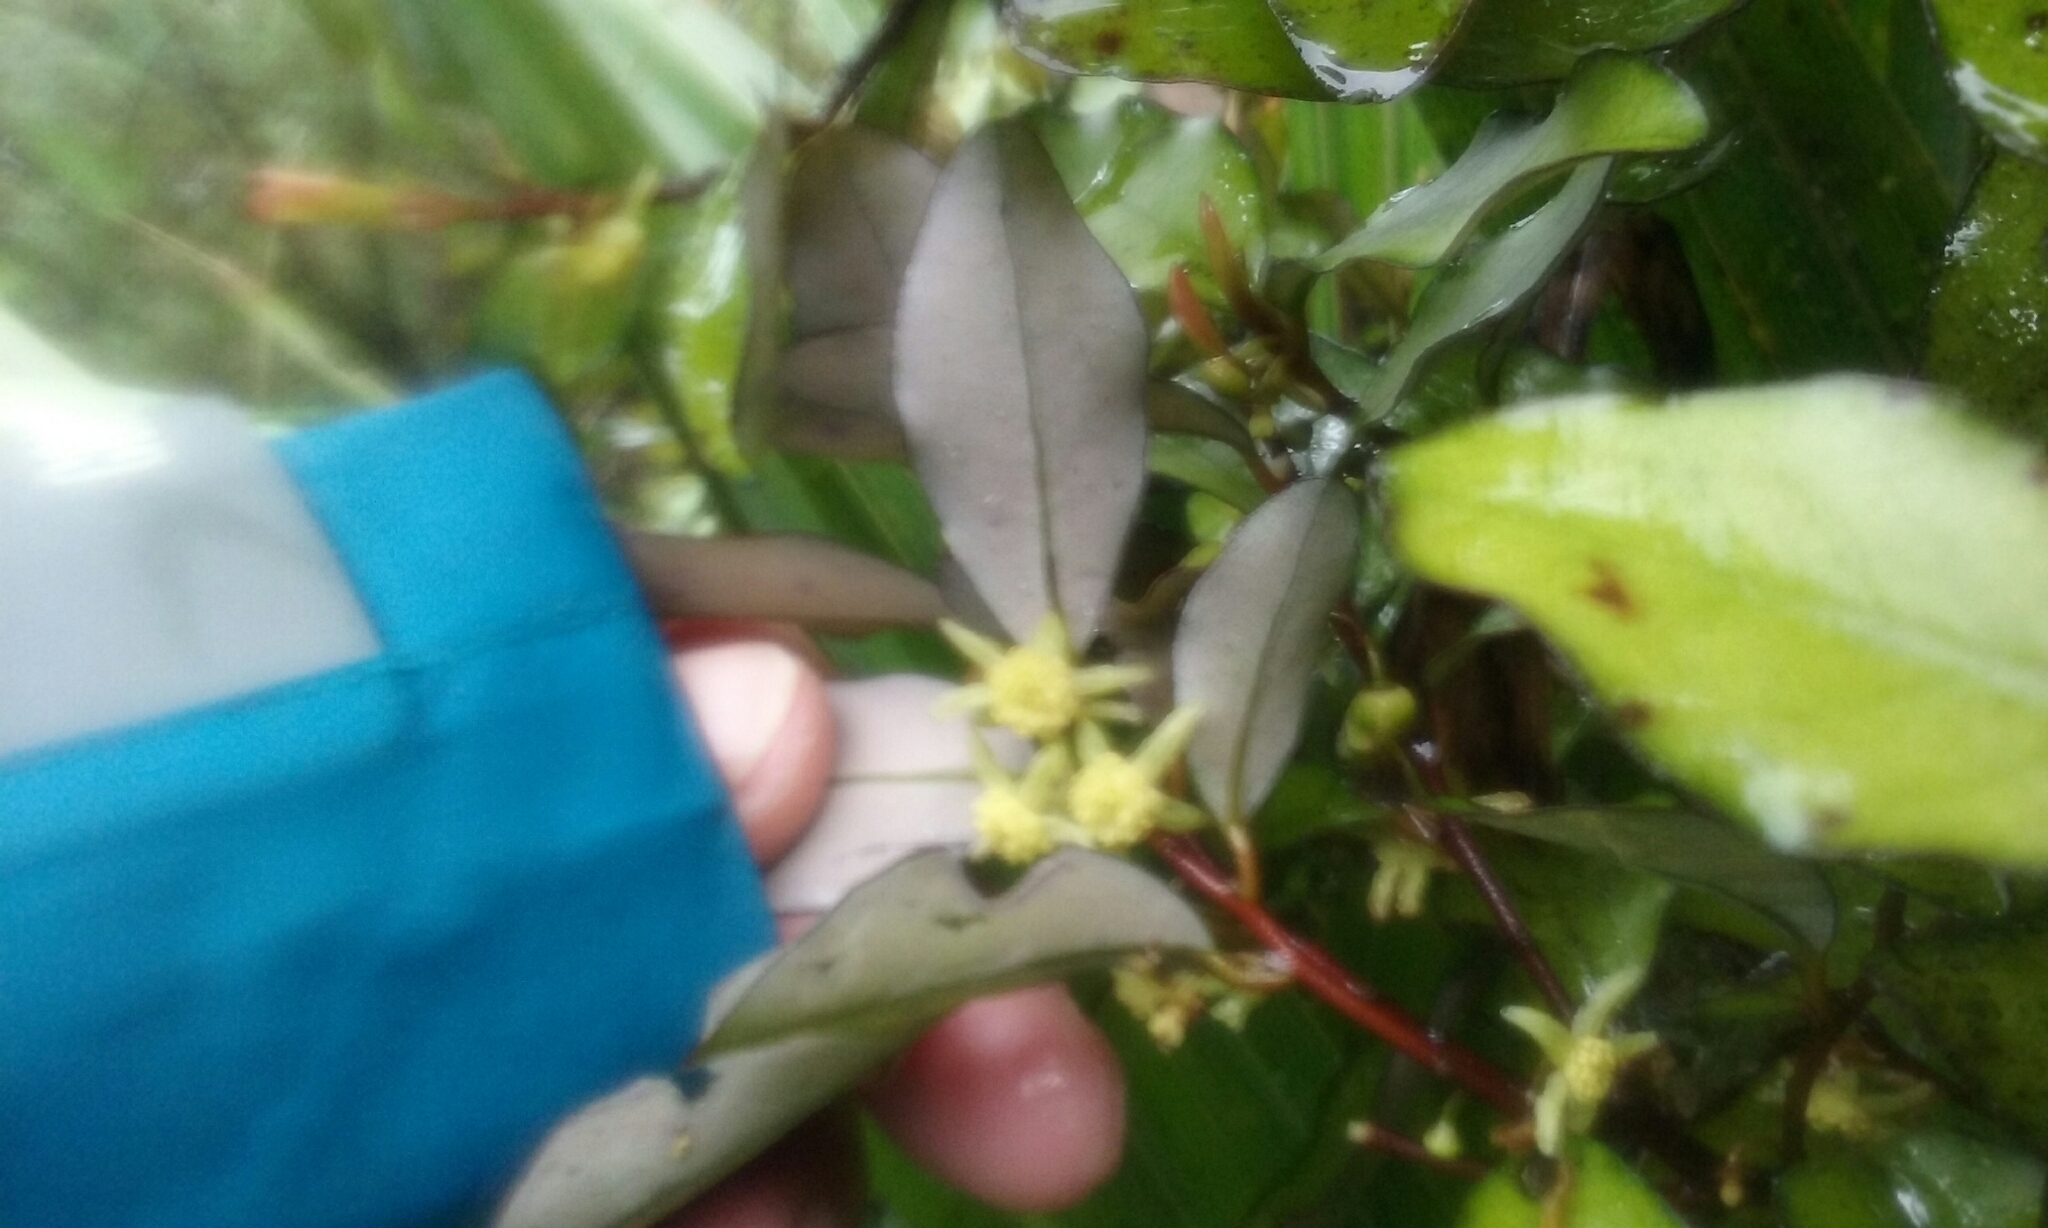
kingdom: Plantae
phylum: Tracheophyta
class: Magnoliopsida
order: Canellales
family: Winteraceae
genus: Pseudowintera
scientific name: Pseudowintera colorata
